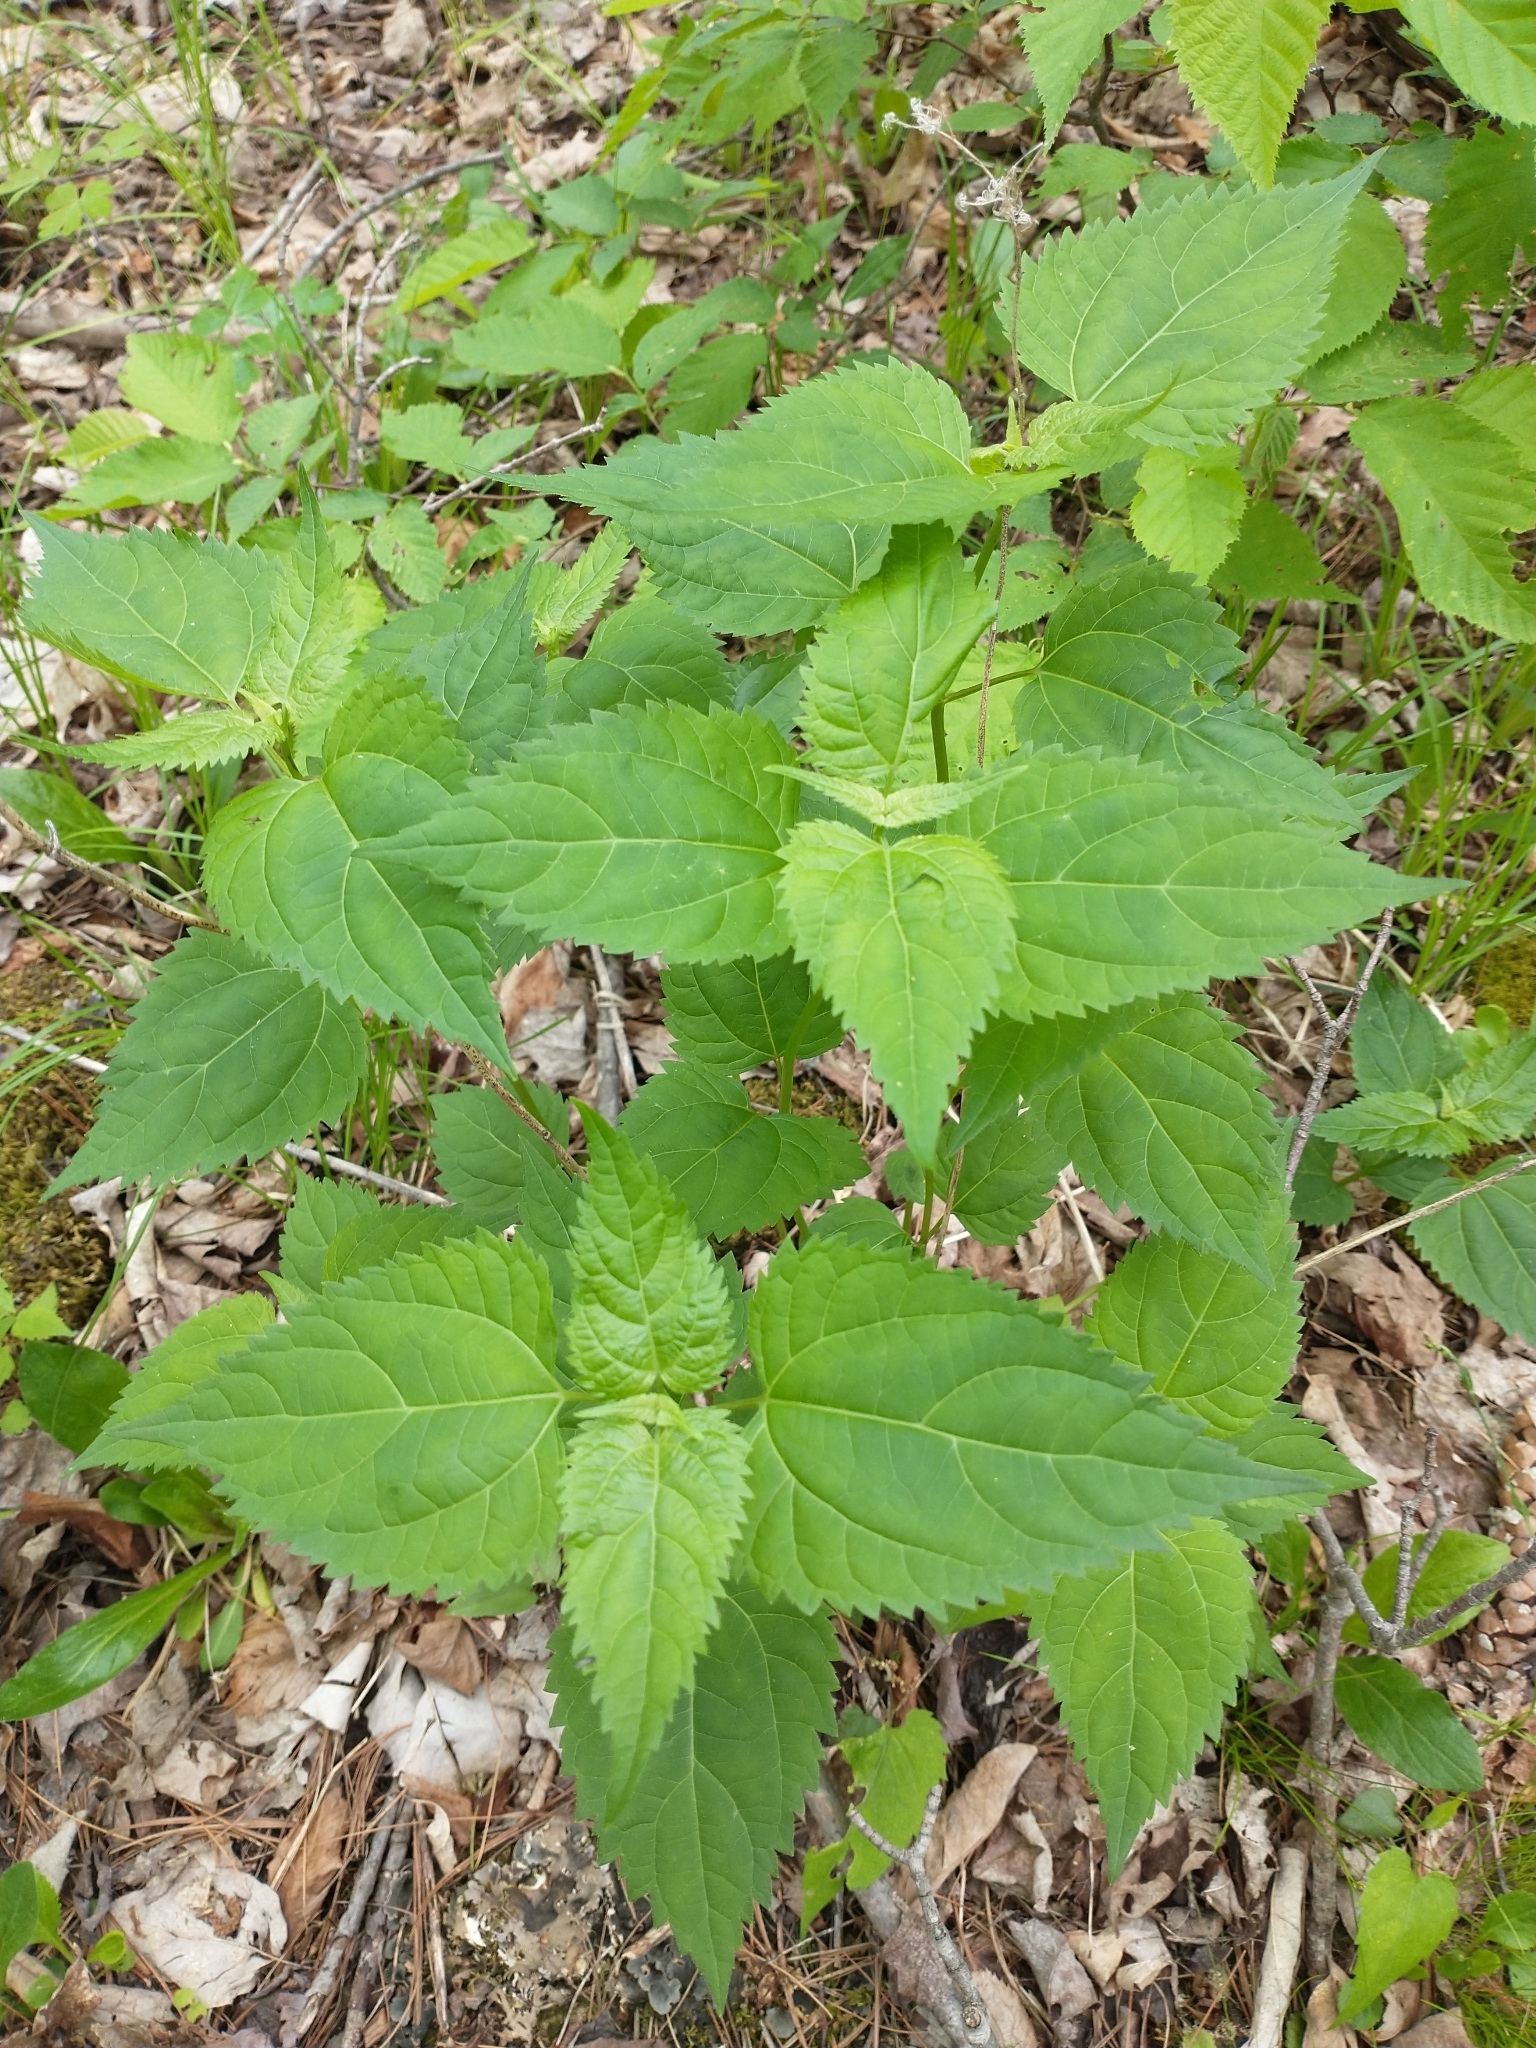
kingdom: Plantae
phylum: Tracheophyta
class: Magnoliopsida
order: Asterales
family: Asteraceae
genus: Ageratina
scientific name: Ageratina altissima
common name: White snakeroot
